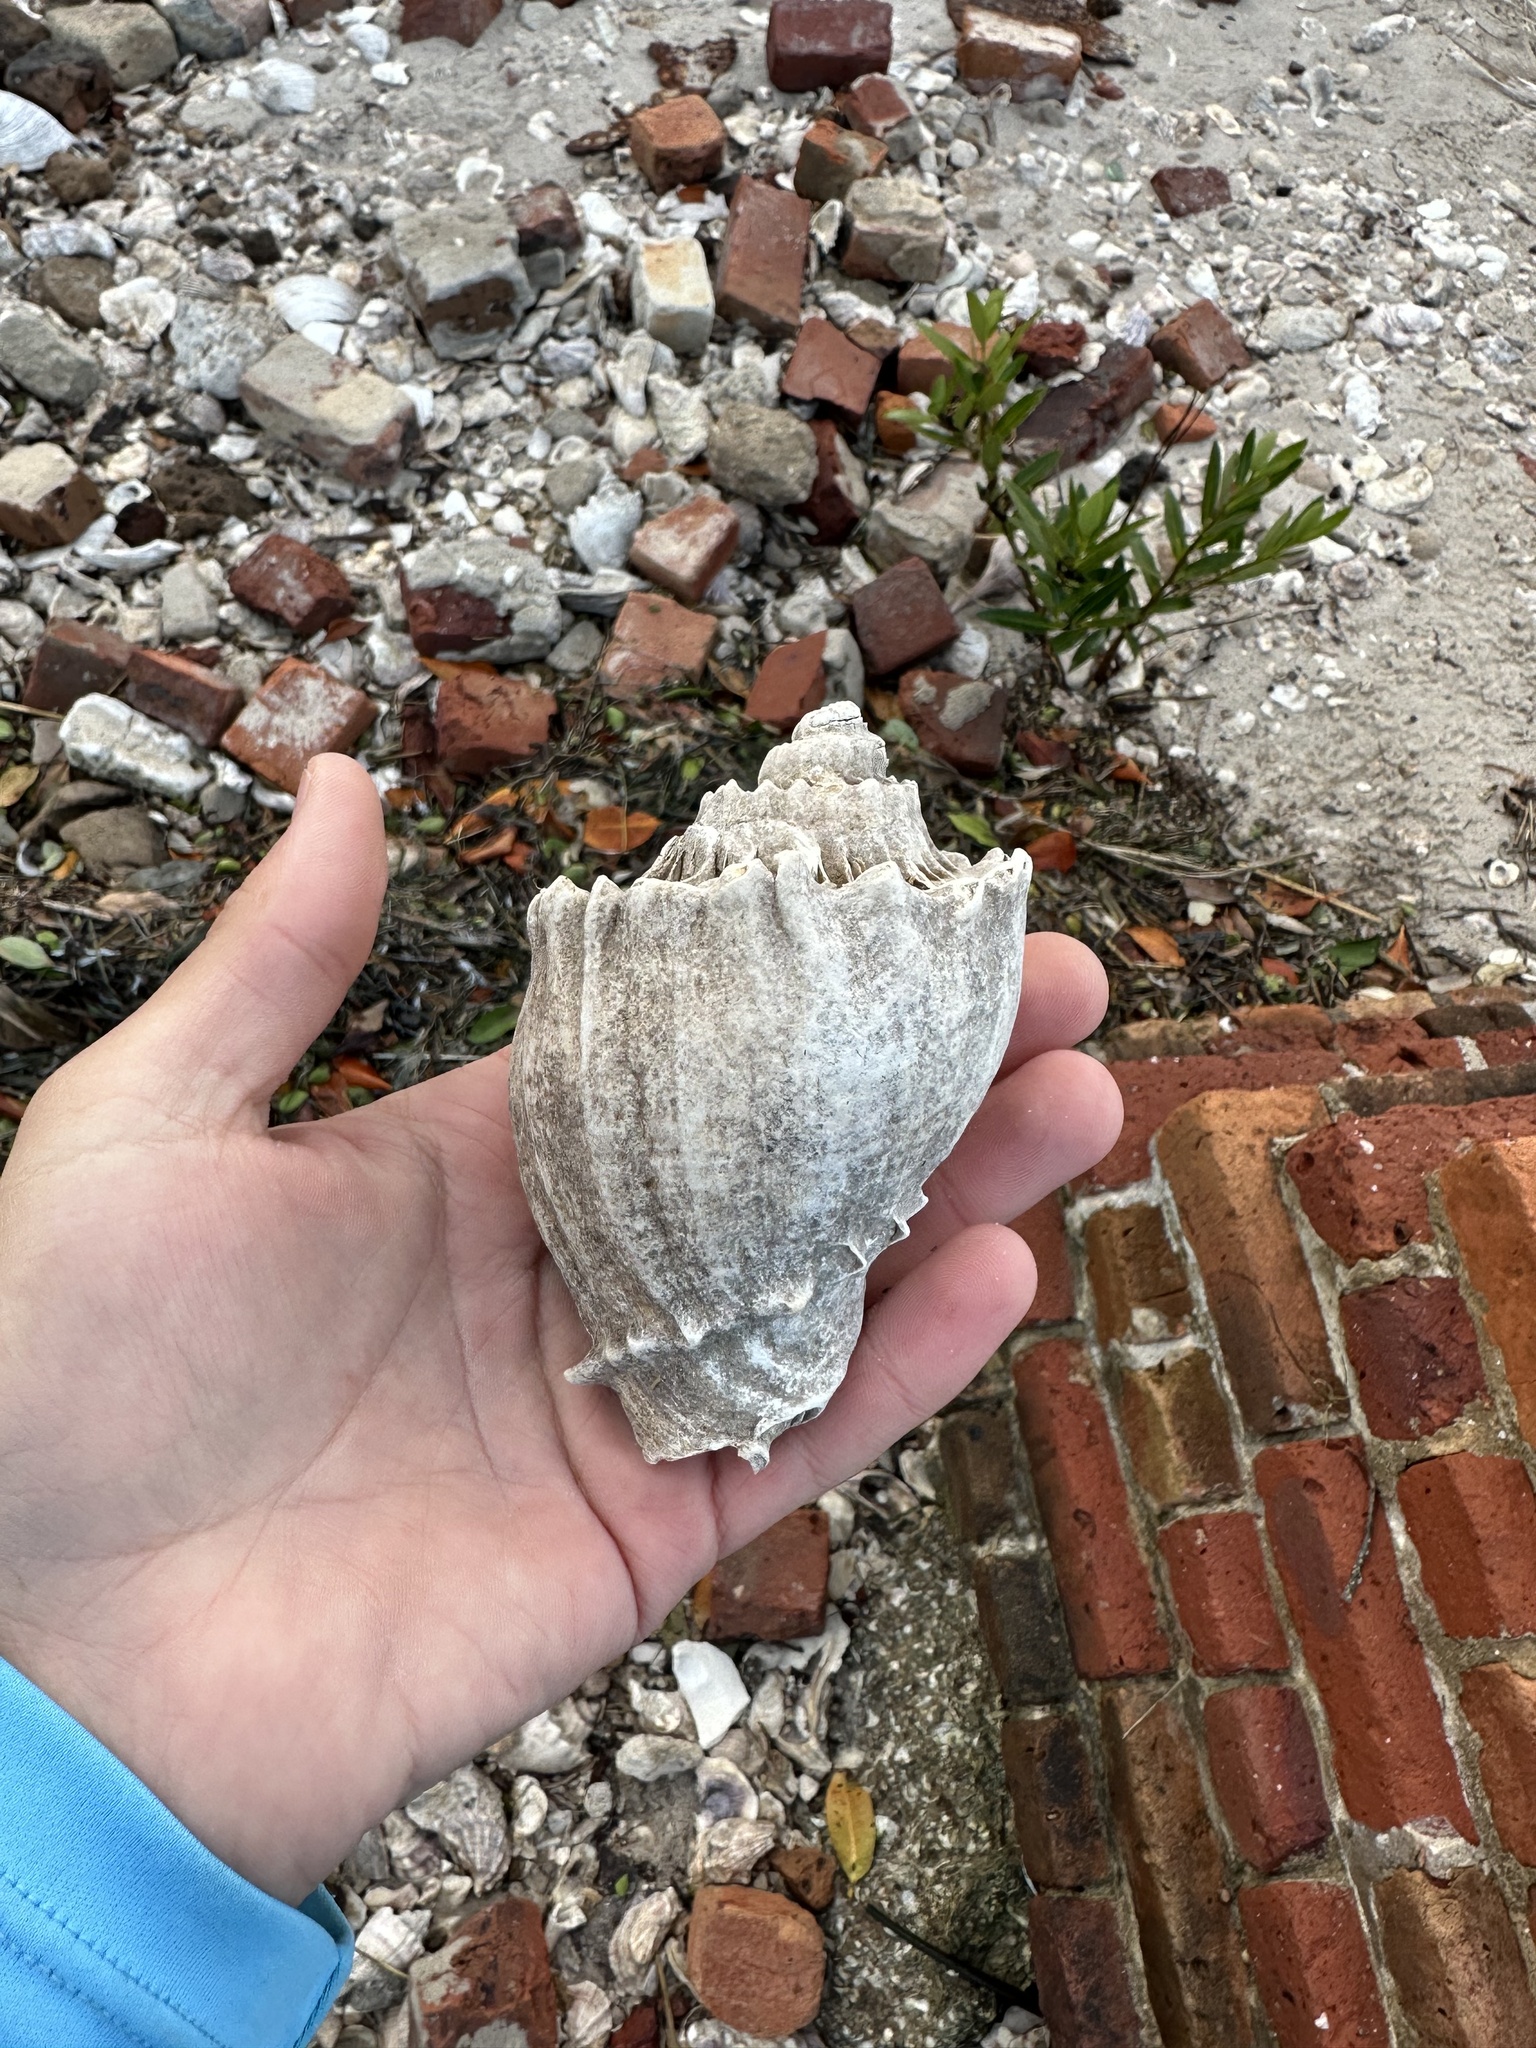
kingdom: Animalia
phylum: Mollusca
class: Gastropoda
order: Neogastropoda
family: Melongenidae
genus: Melongena
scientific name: Melongena corona
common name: American crown conch
